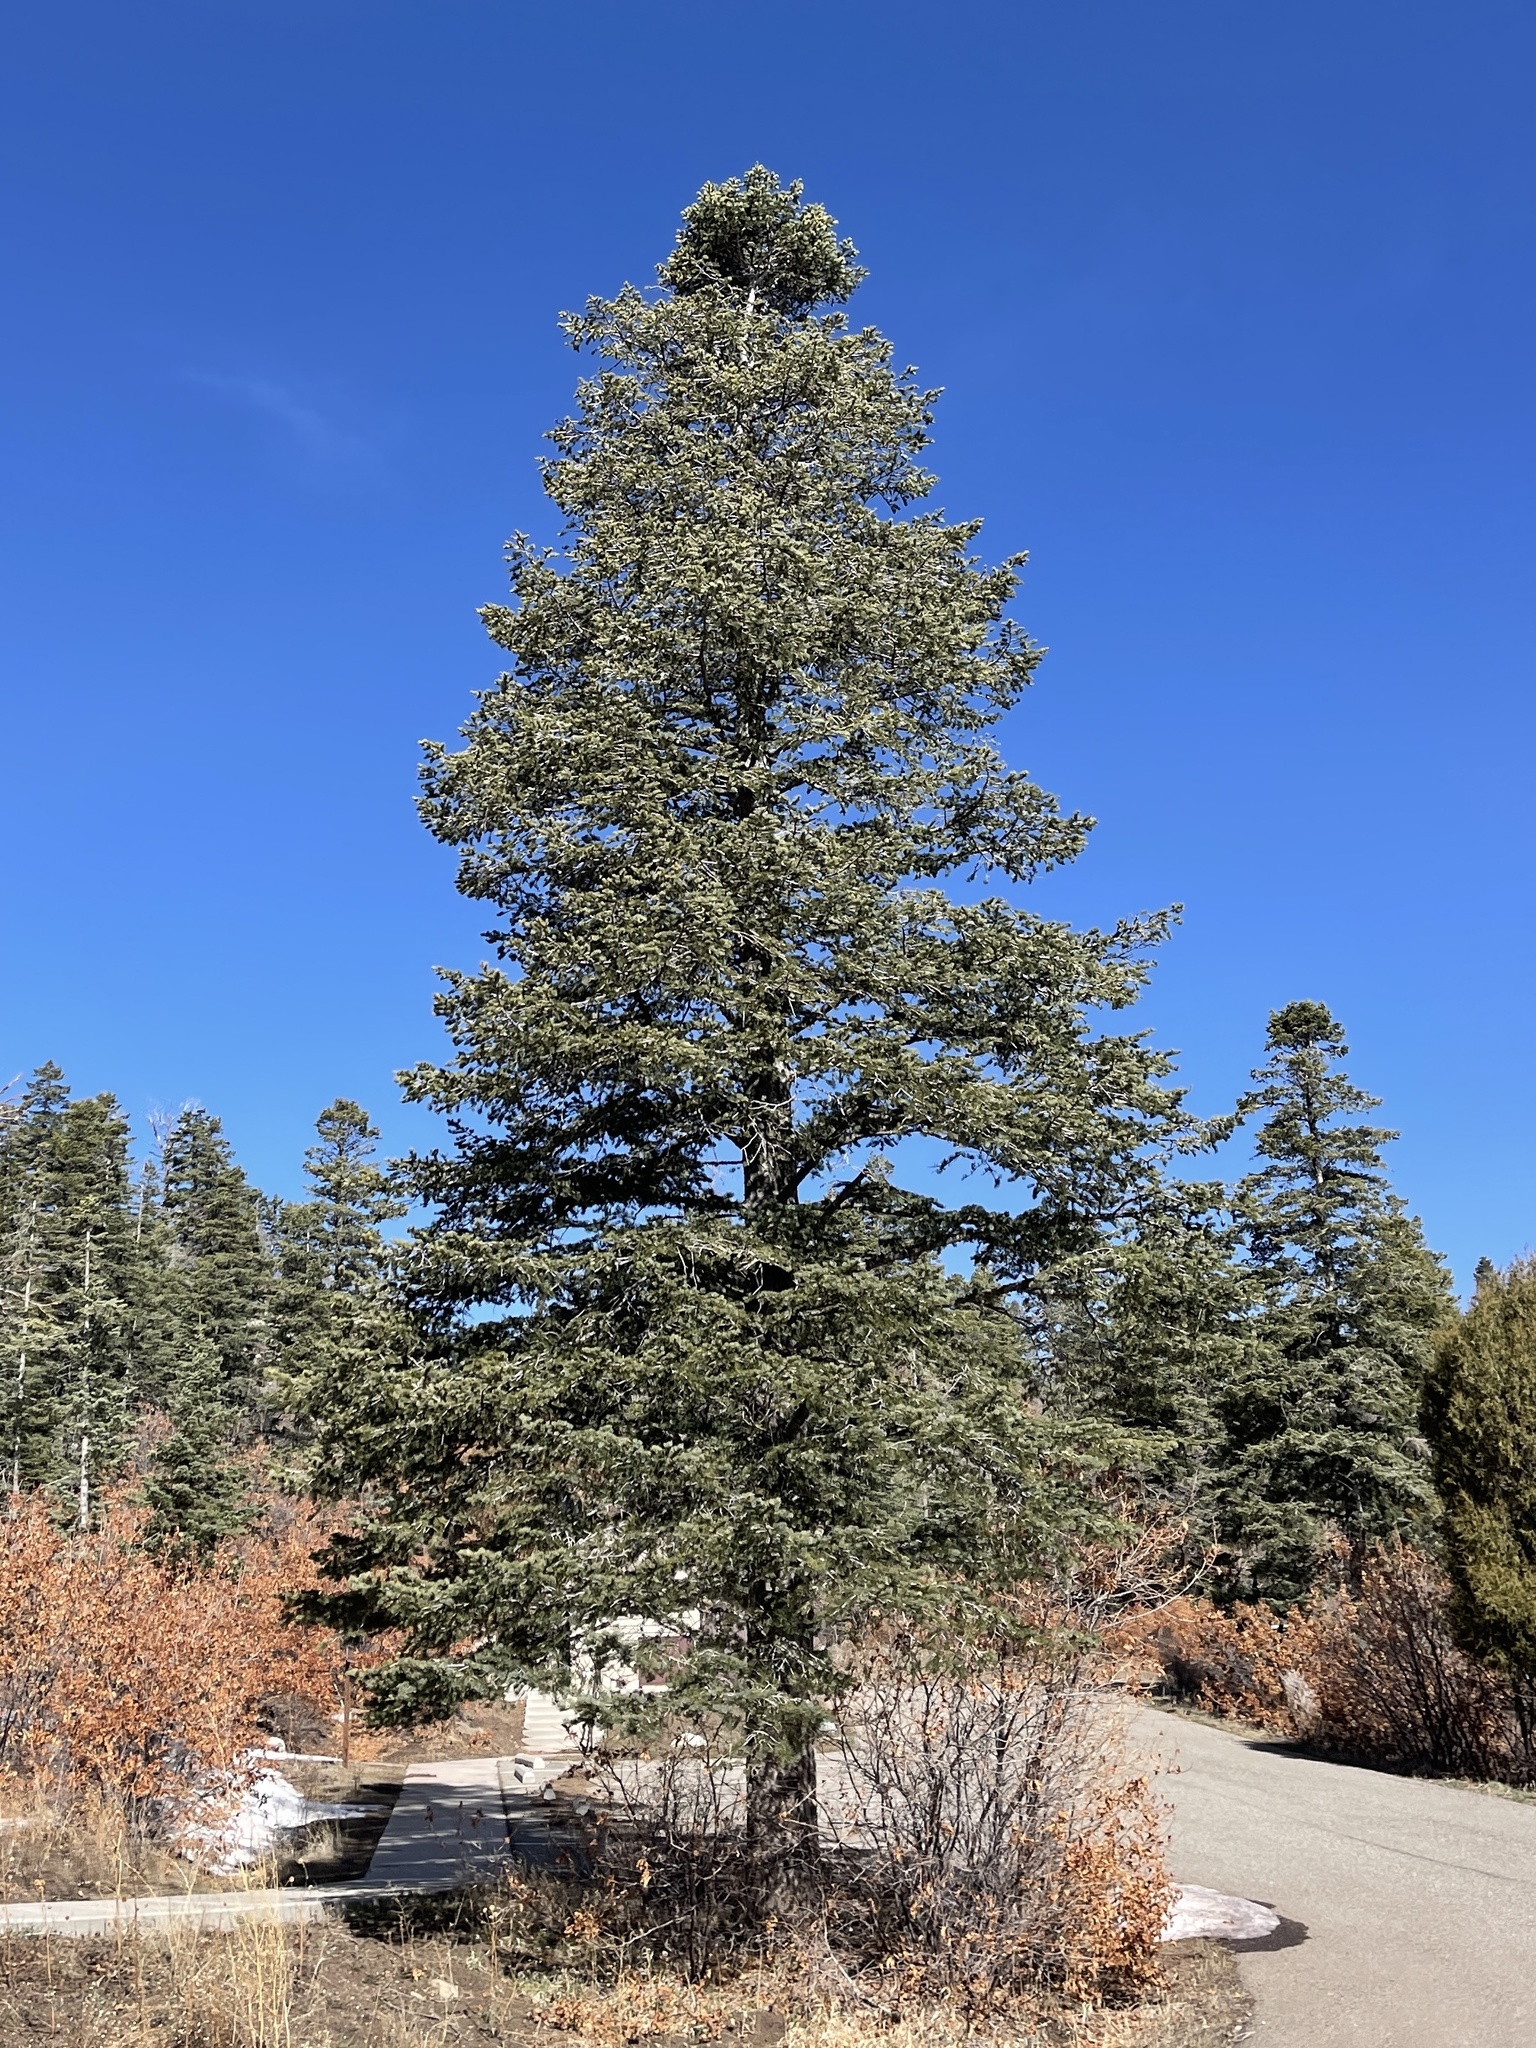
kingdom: Plantae
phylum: Tracheophyta
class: Pinopsida
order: Pinales
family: Pinaceae
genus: Abies
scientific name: Abies concolor
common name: Colorado fir
